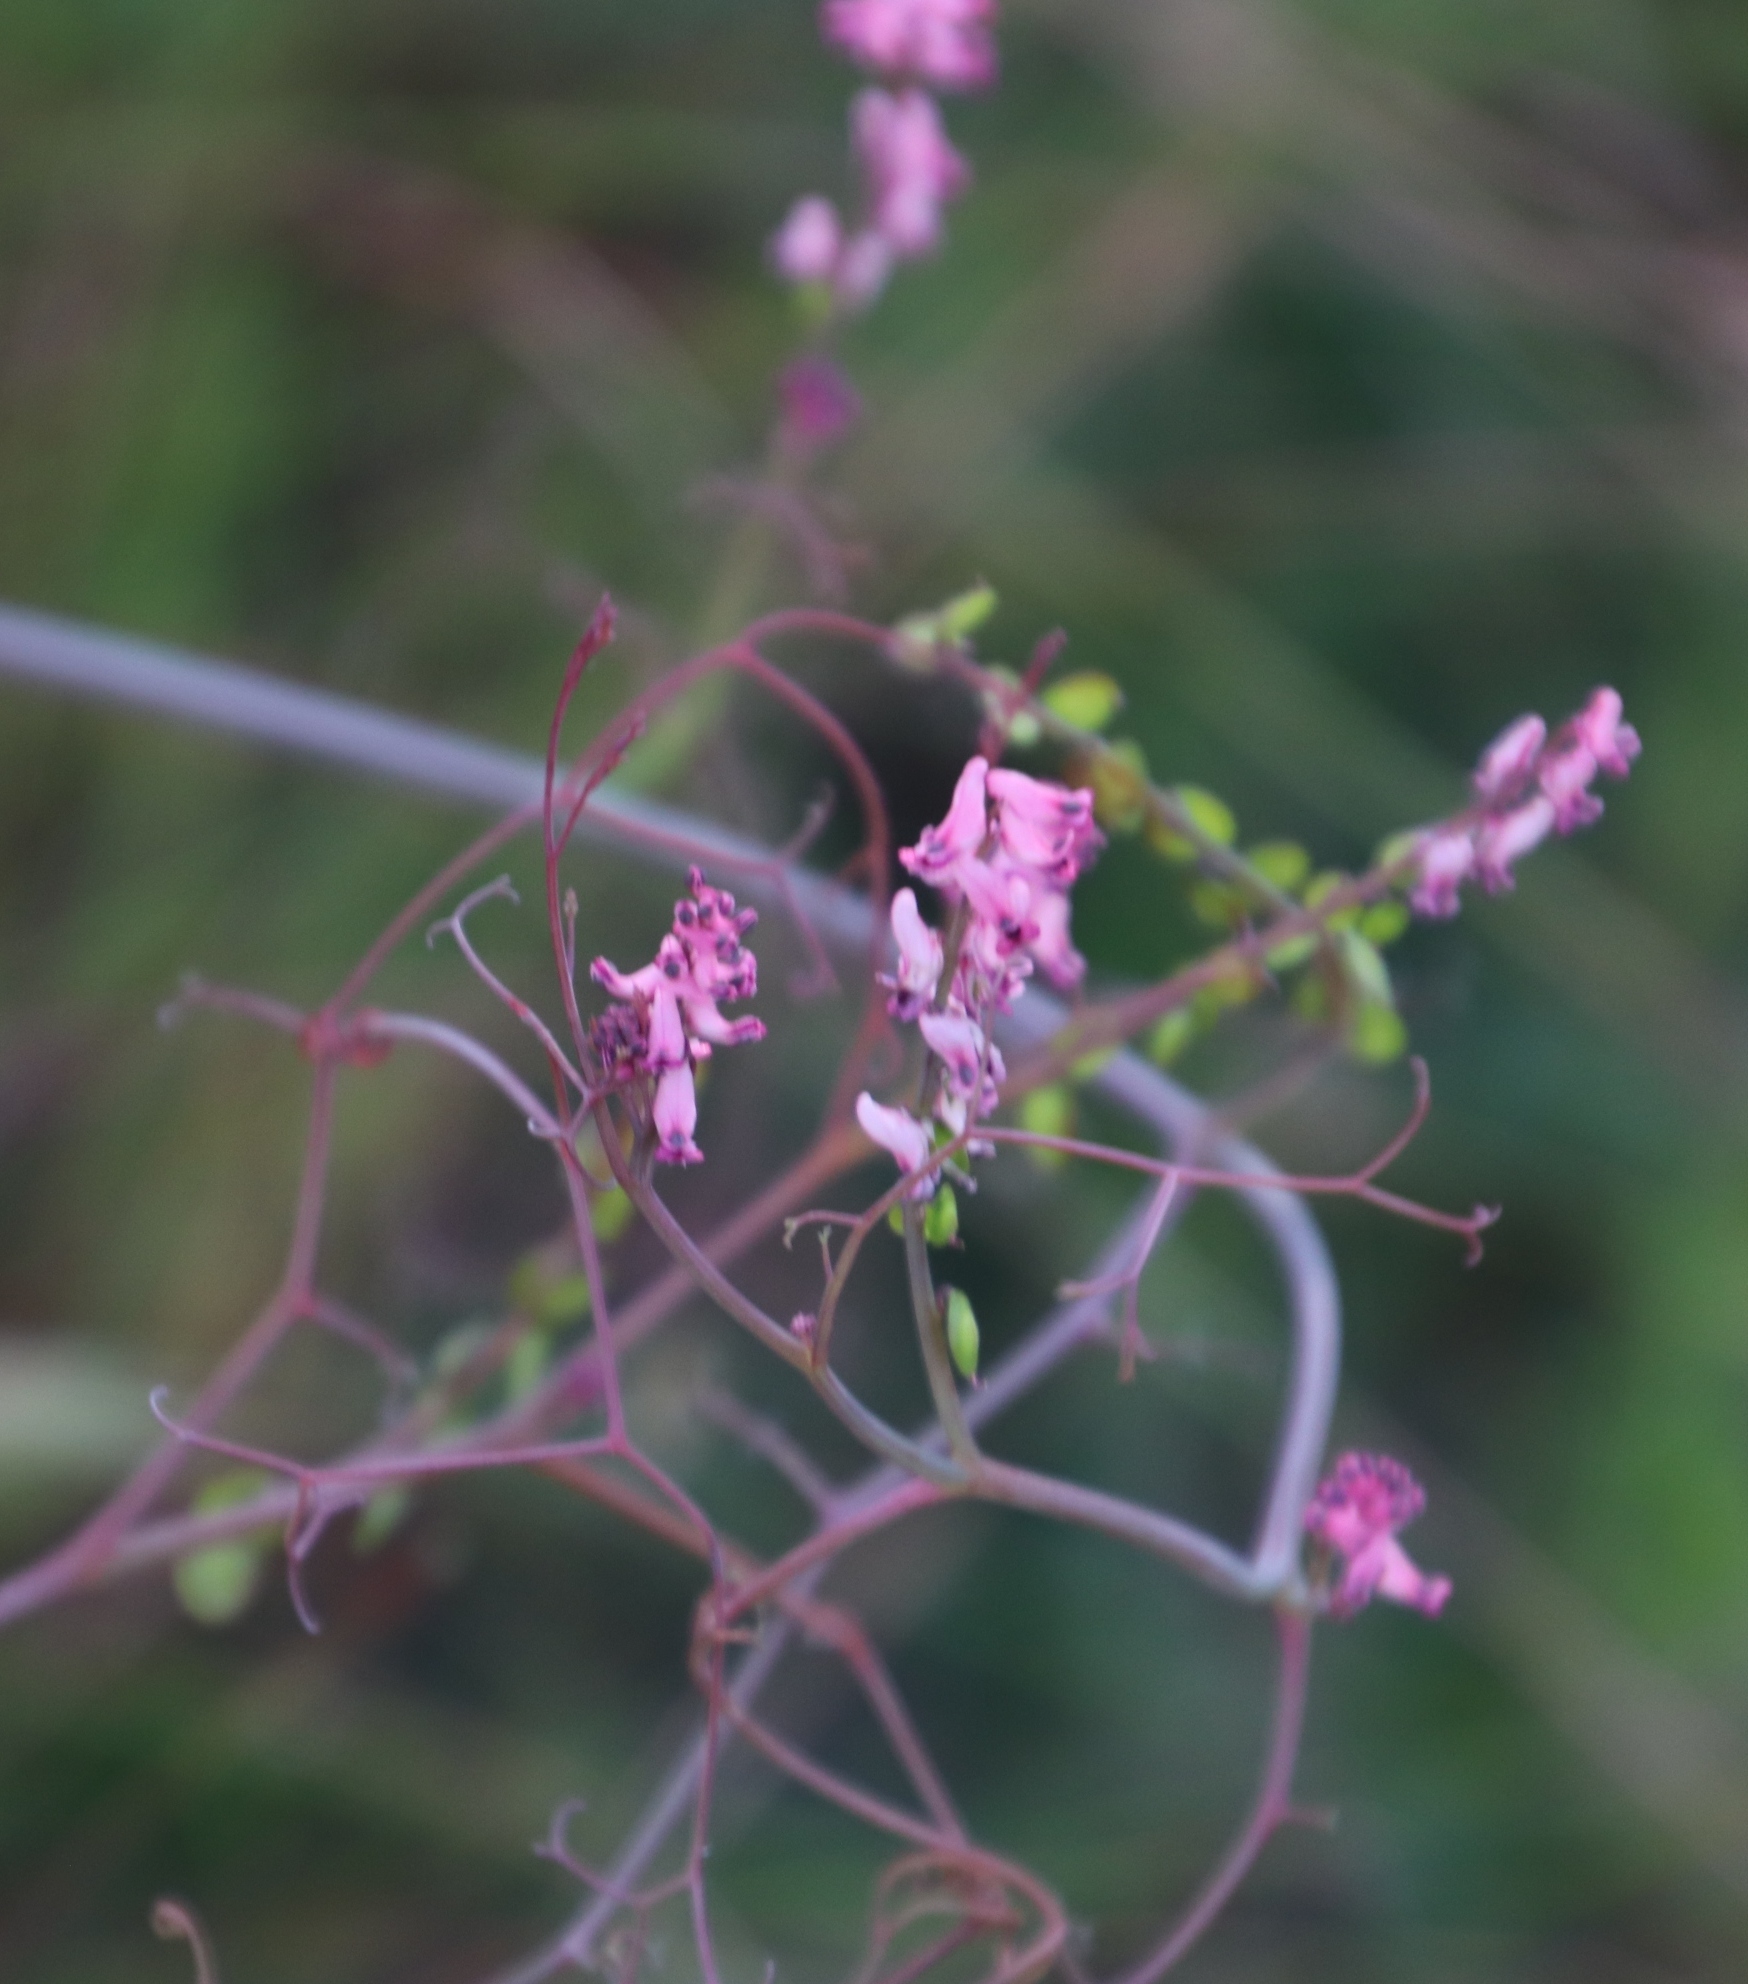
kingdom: Plantae
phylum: Tracheophyta
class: Magnoliopsida
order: Ranunculales
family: Papaveraceae
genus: Discocapnos
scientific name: Discocapnos mundti
